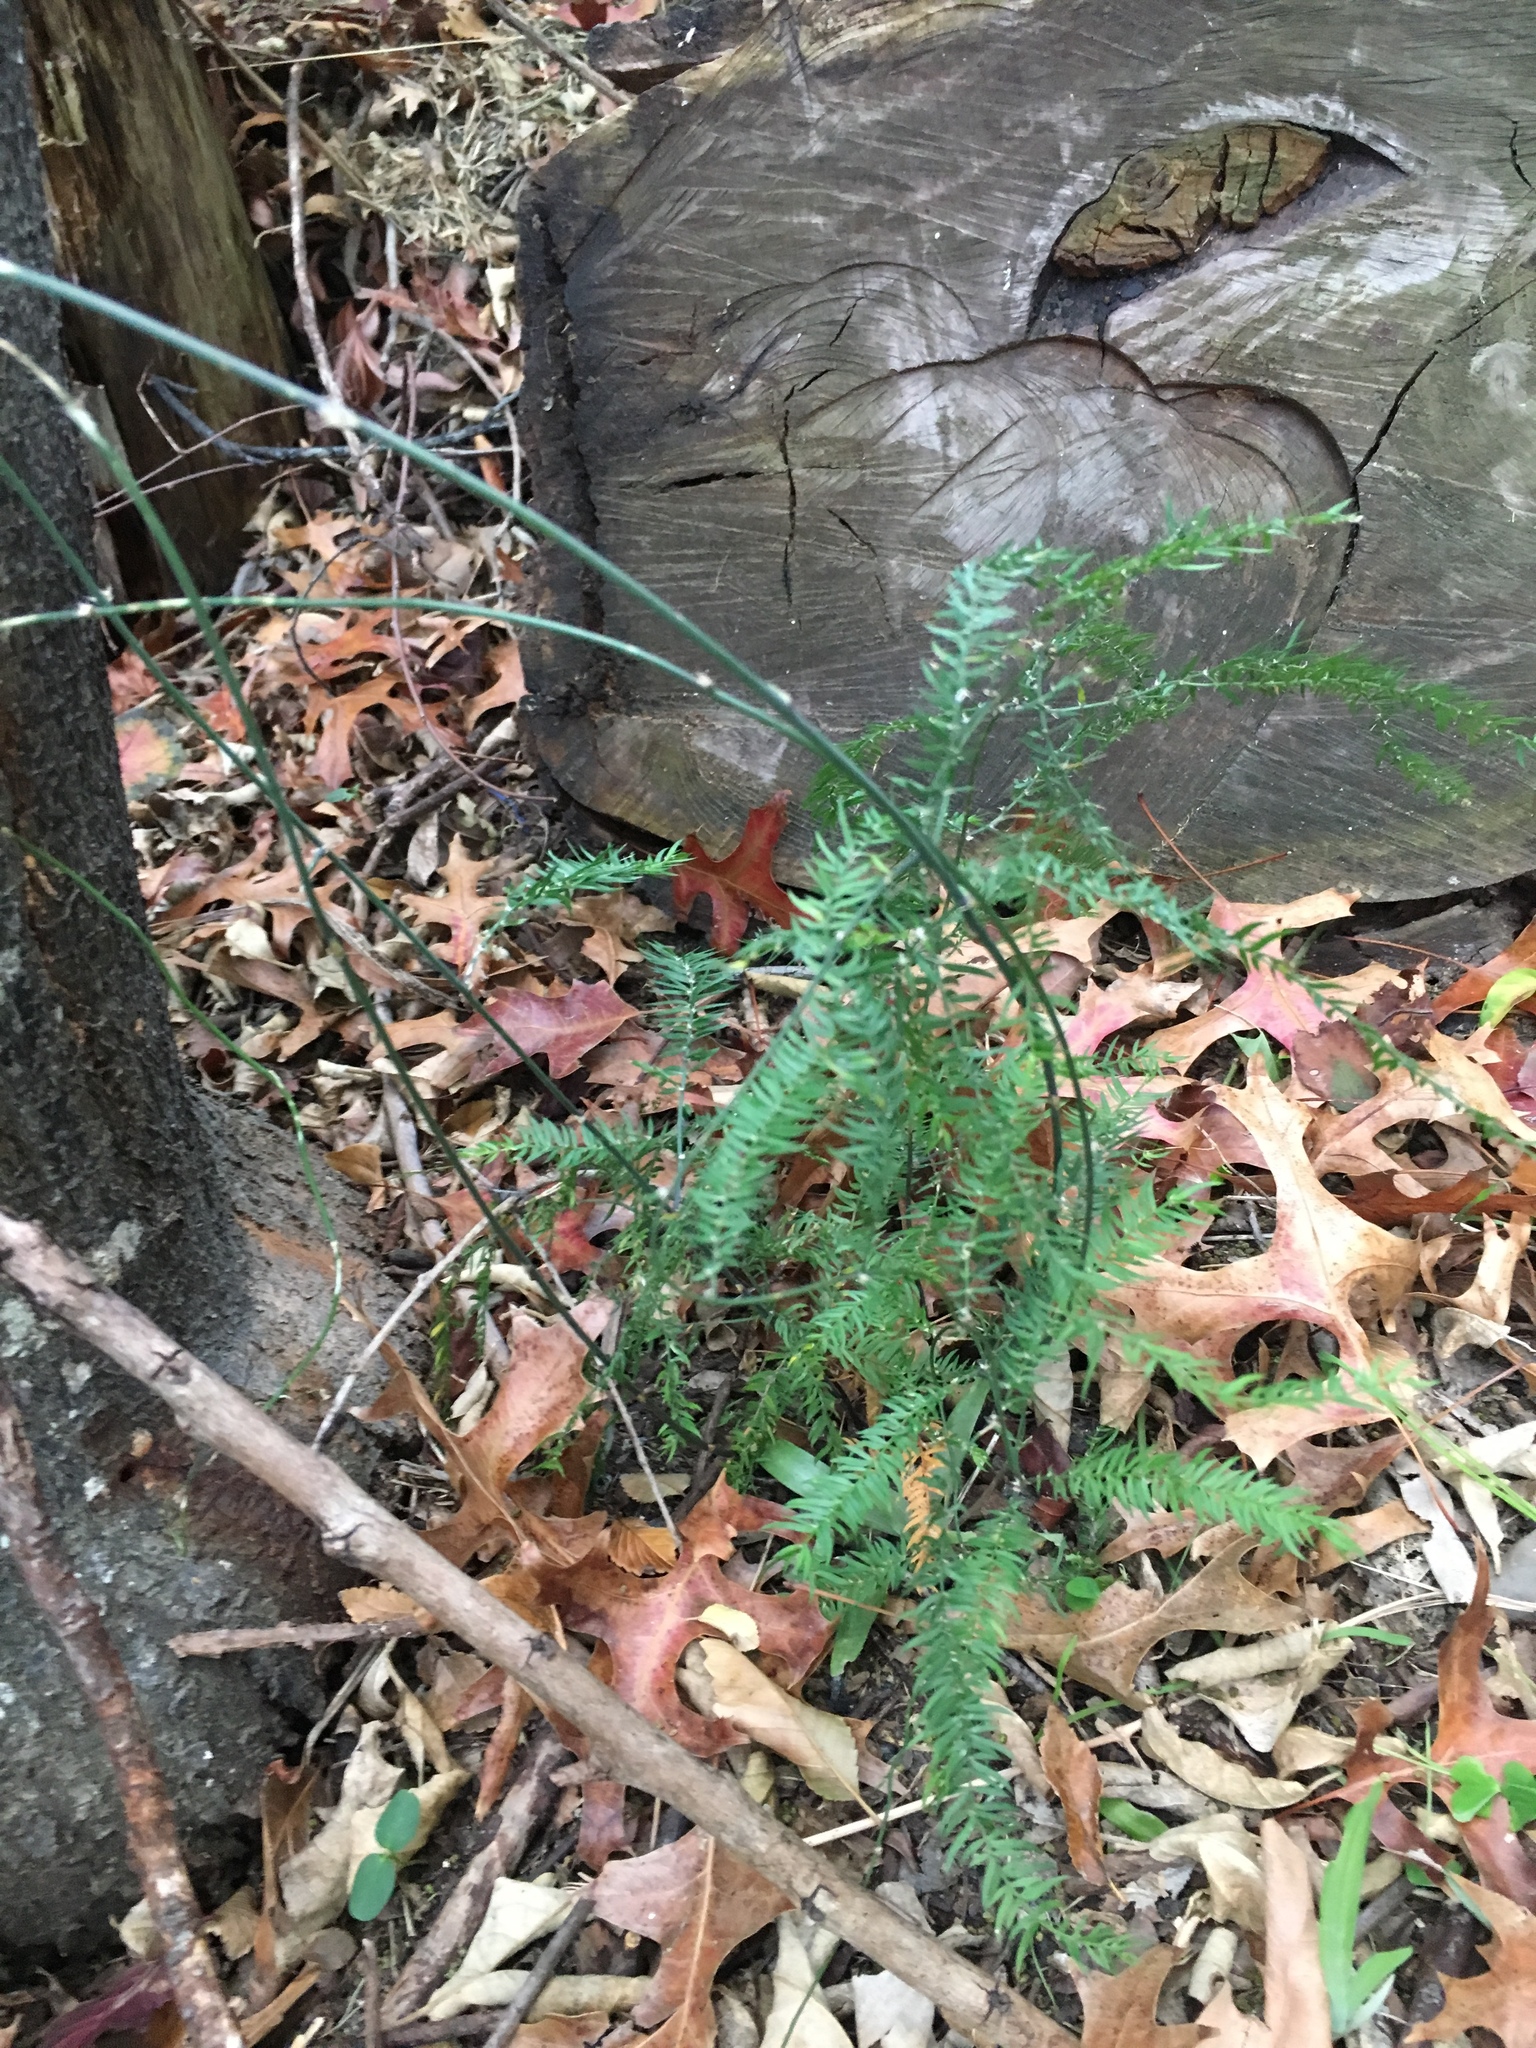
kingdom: Plantae
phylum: Tracheophyta
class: Liliopsida
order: Asparagales
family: Asparagaceae
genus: Asparagus
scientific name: Asparagus scandens
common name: Asparagus-fern
